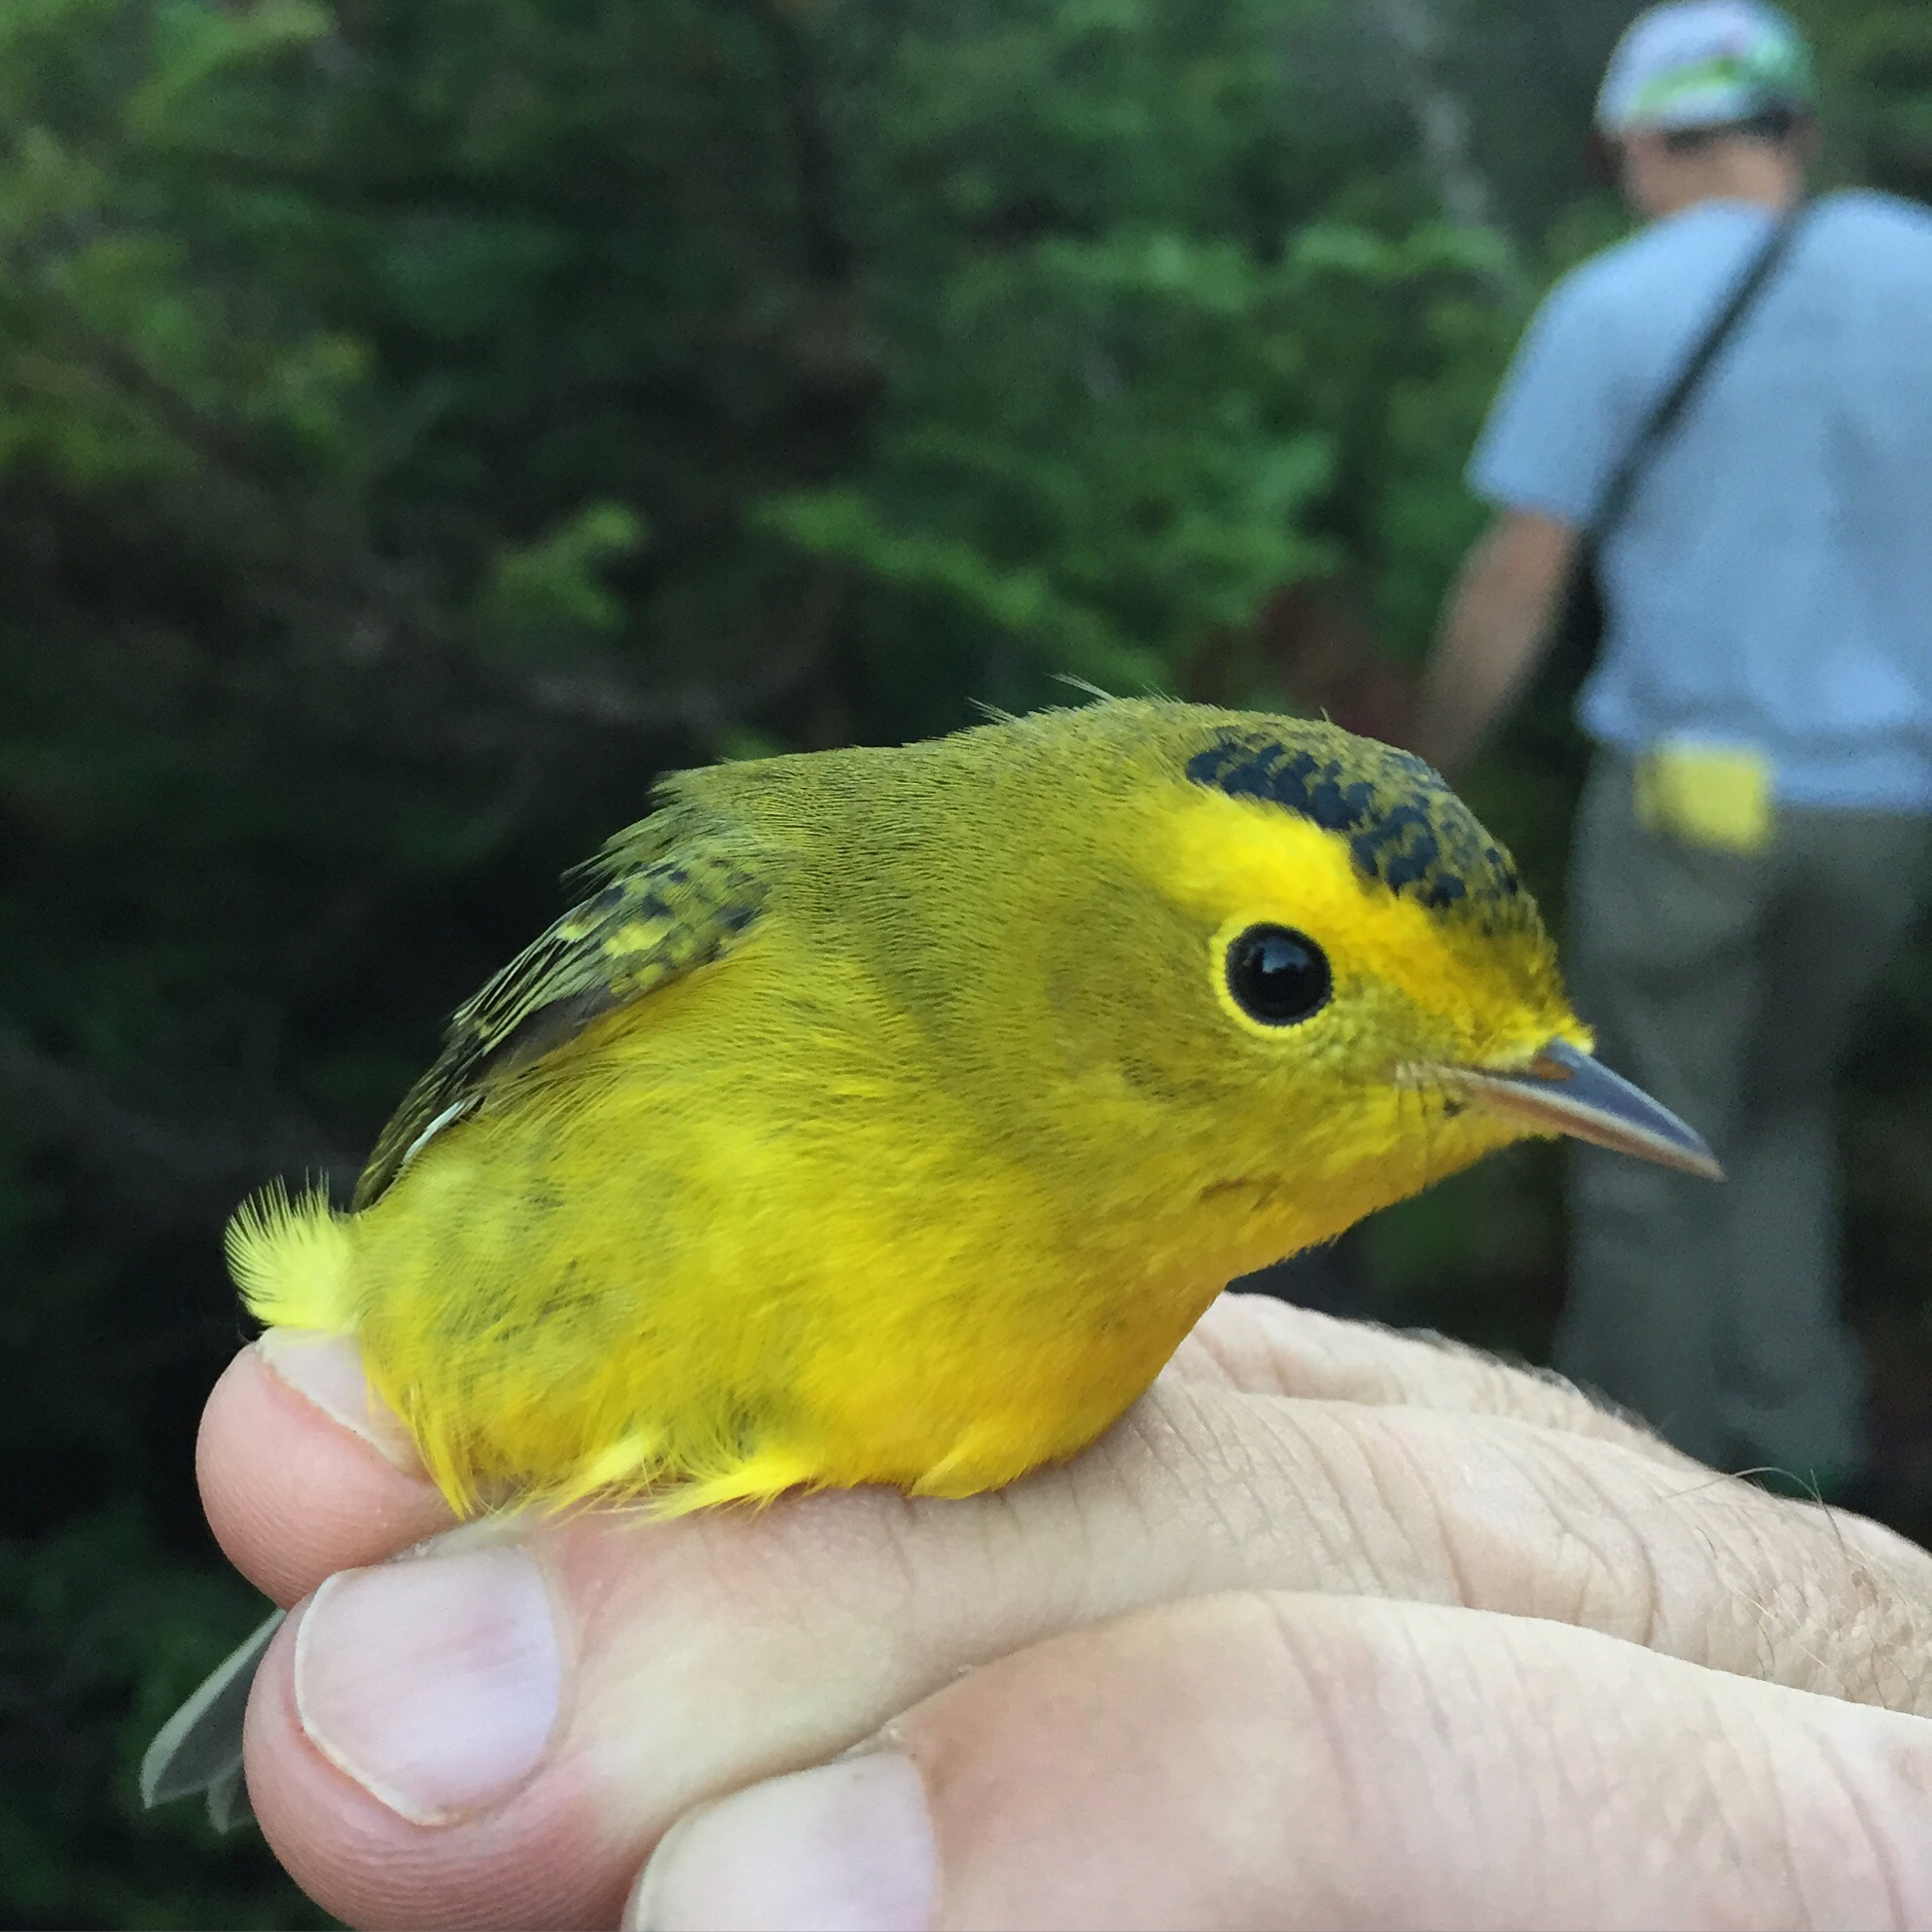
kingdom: Animalia
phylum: Chordata
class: Aves
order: Passeriformes
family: Parulidae
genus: Cardellina
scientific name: Cardellina pusilla
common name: Wilson's warbler
